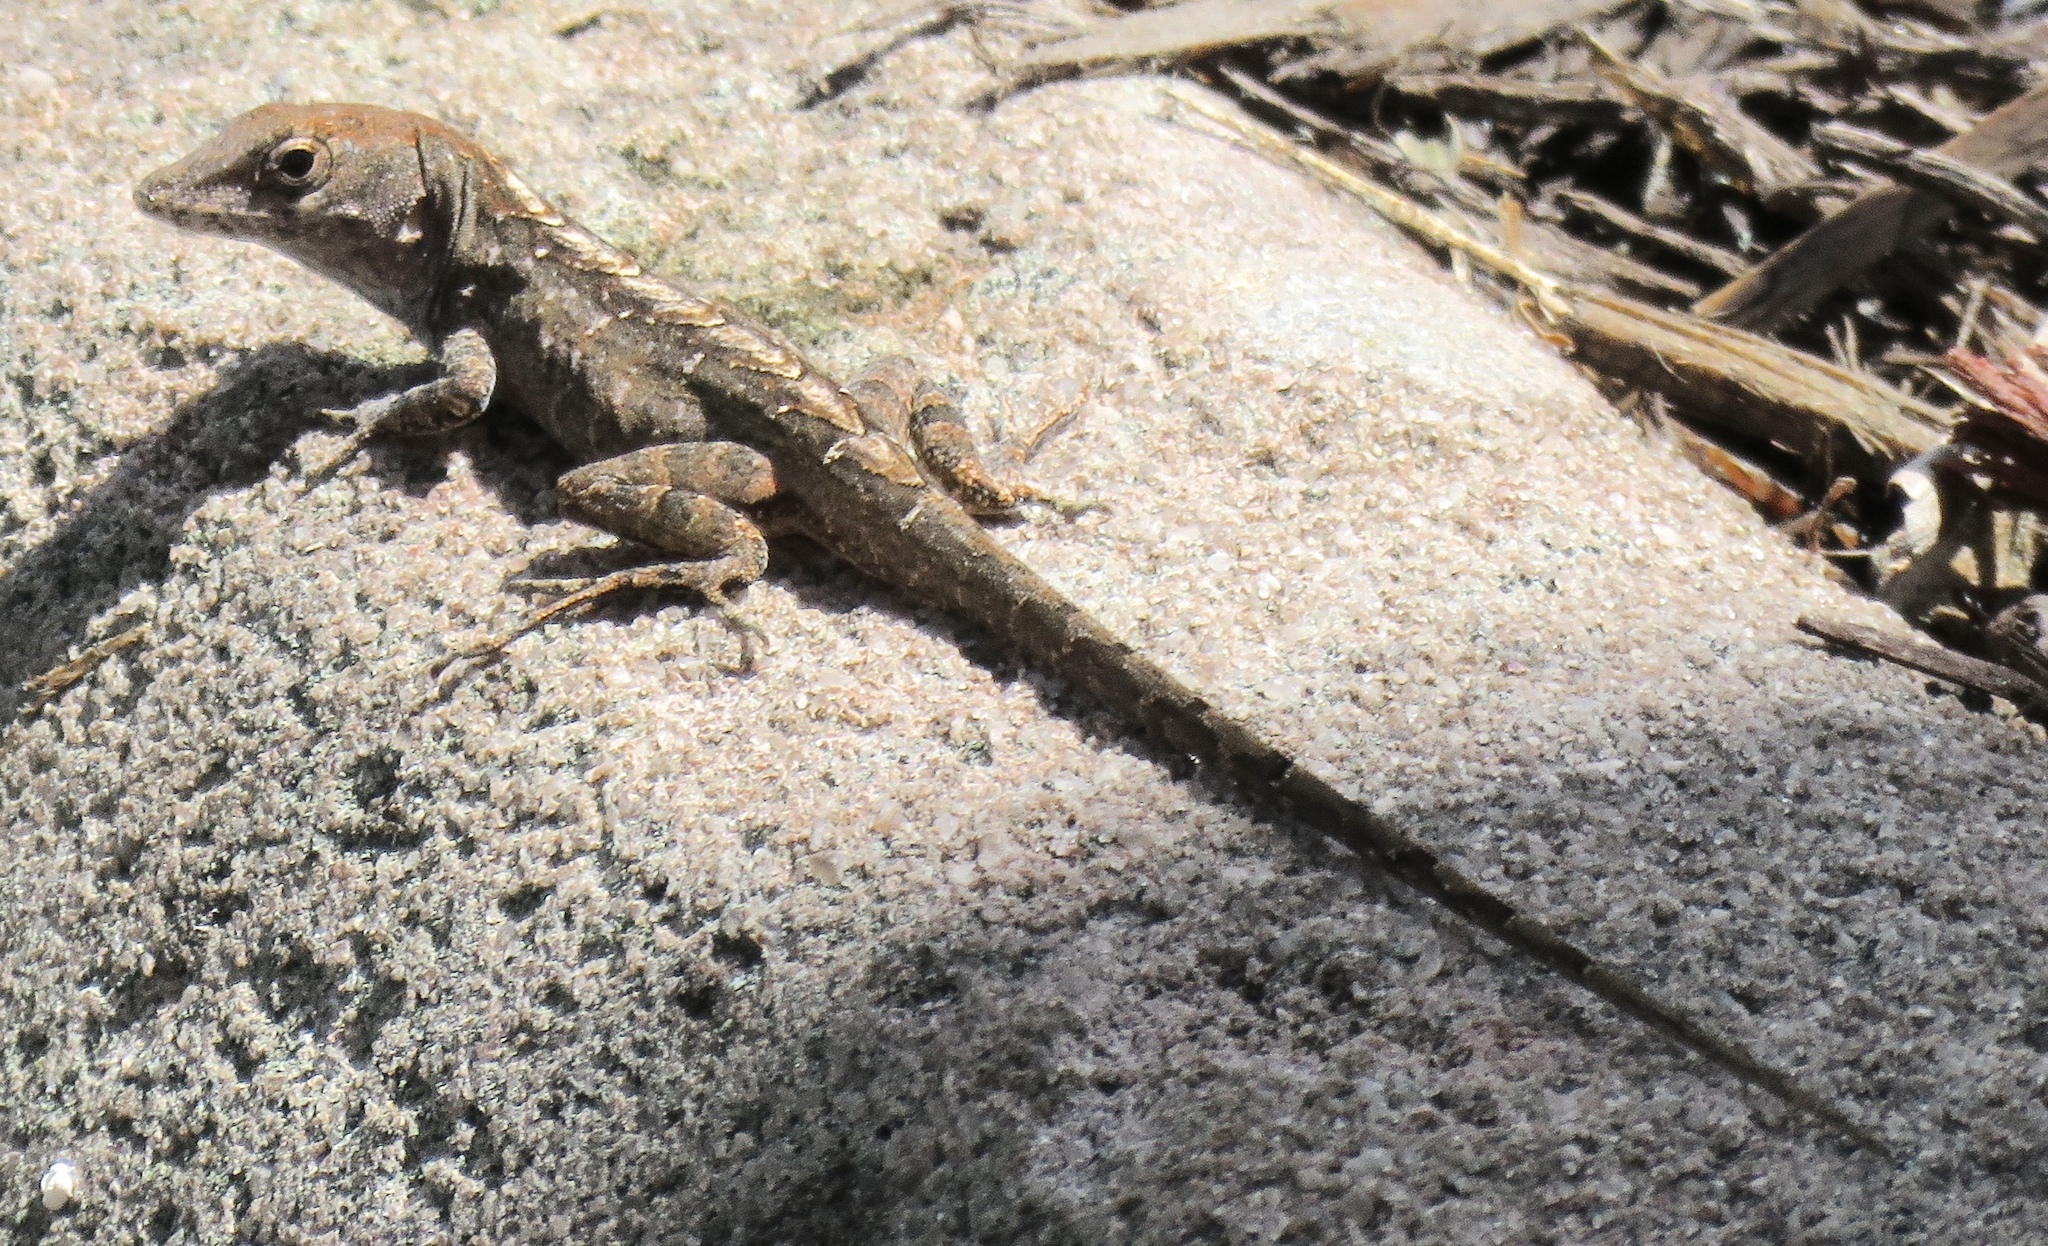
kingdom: Animalia
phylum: Chordata
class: Squamata
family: Dactyloidae
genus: Anolis
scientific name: Anolis sagrei
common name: Brown anole
